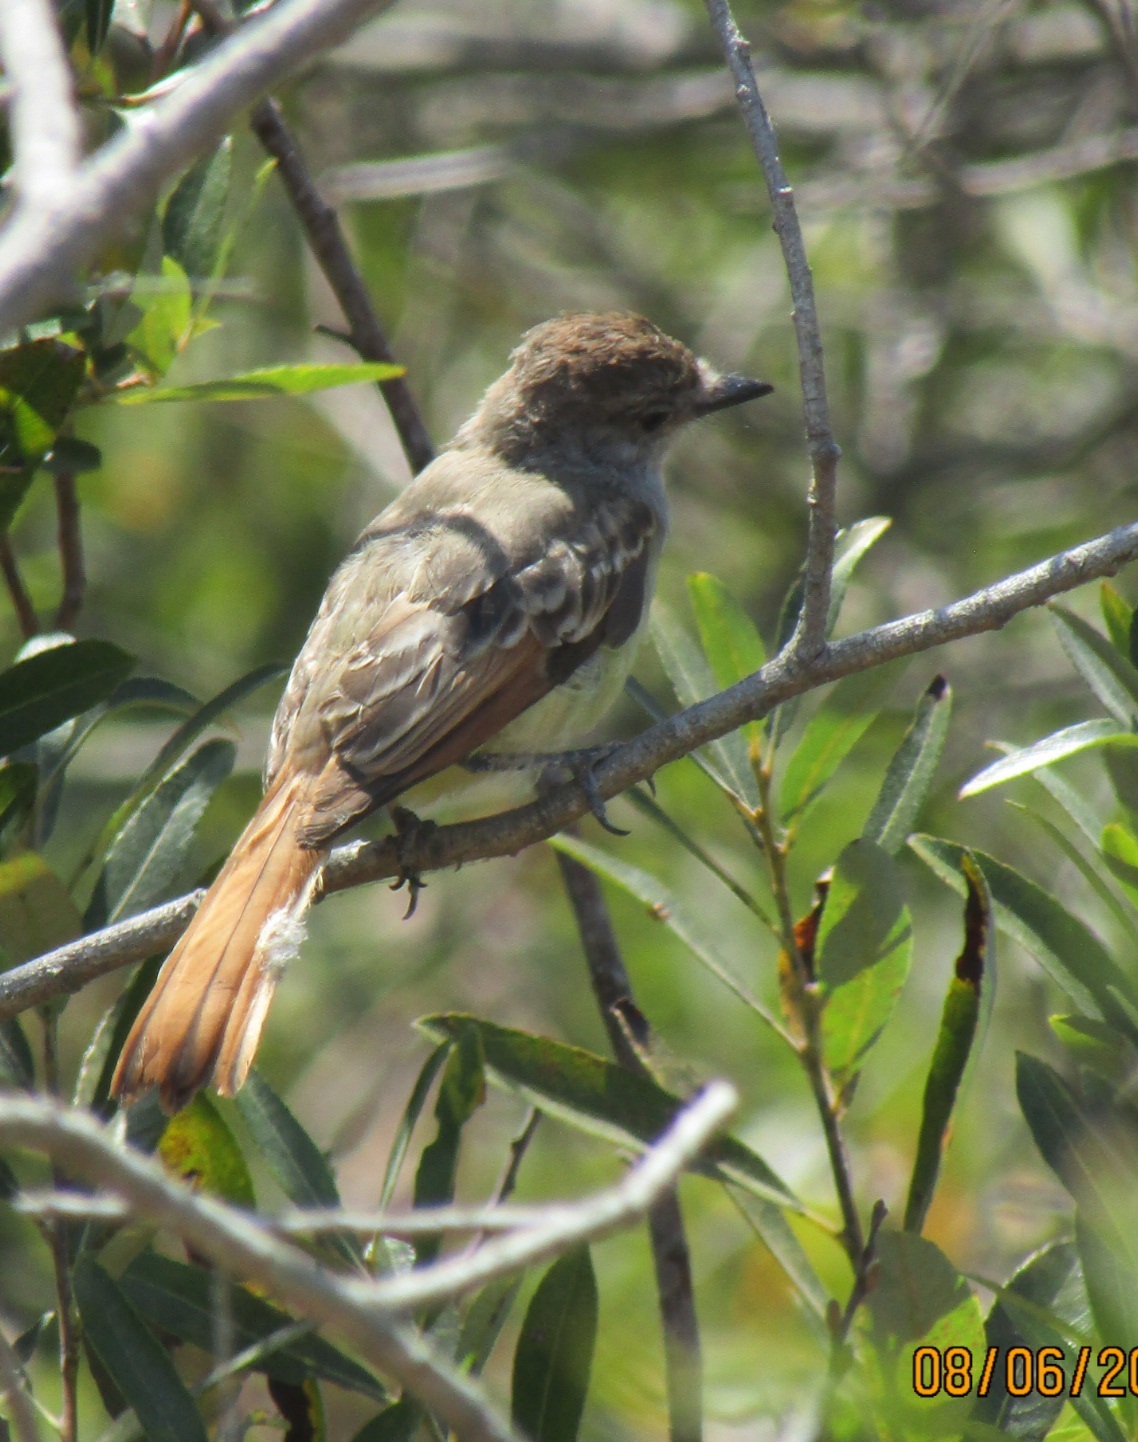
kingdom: Animalia
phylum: Chordata
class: Aves
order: Passeriformes
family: Tyrannidae
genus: Myiarchus
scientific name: Myiarchus cinerascens
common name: Ash-throated flycatcher
